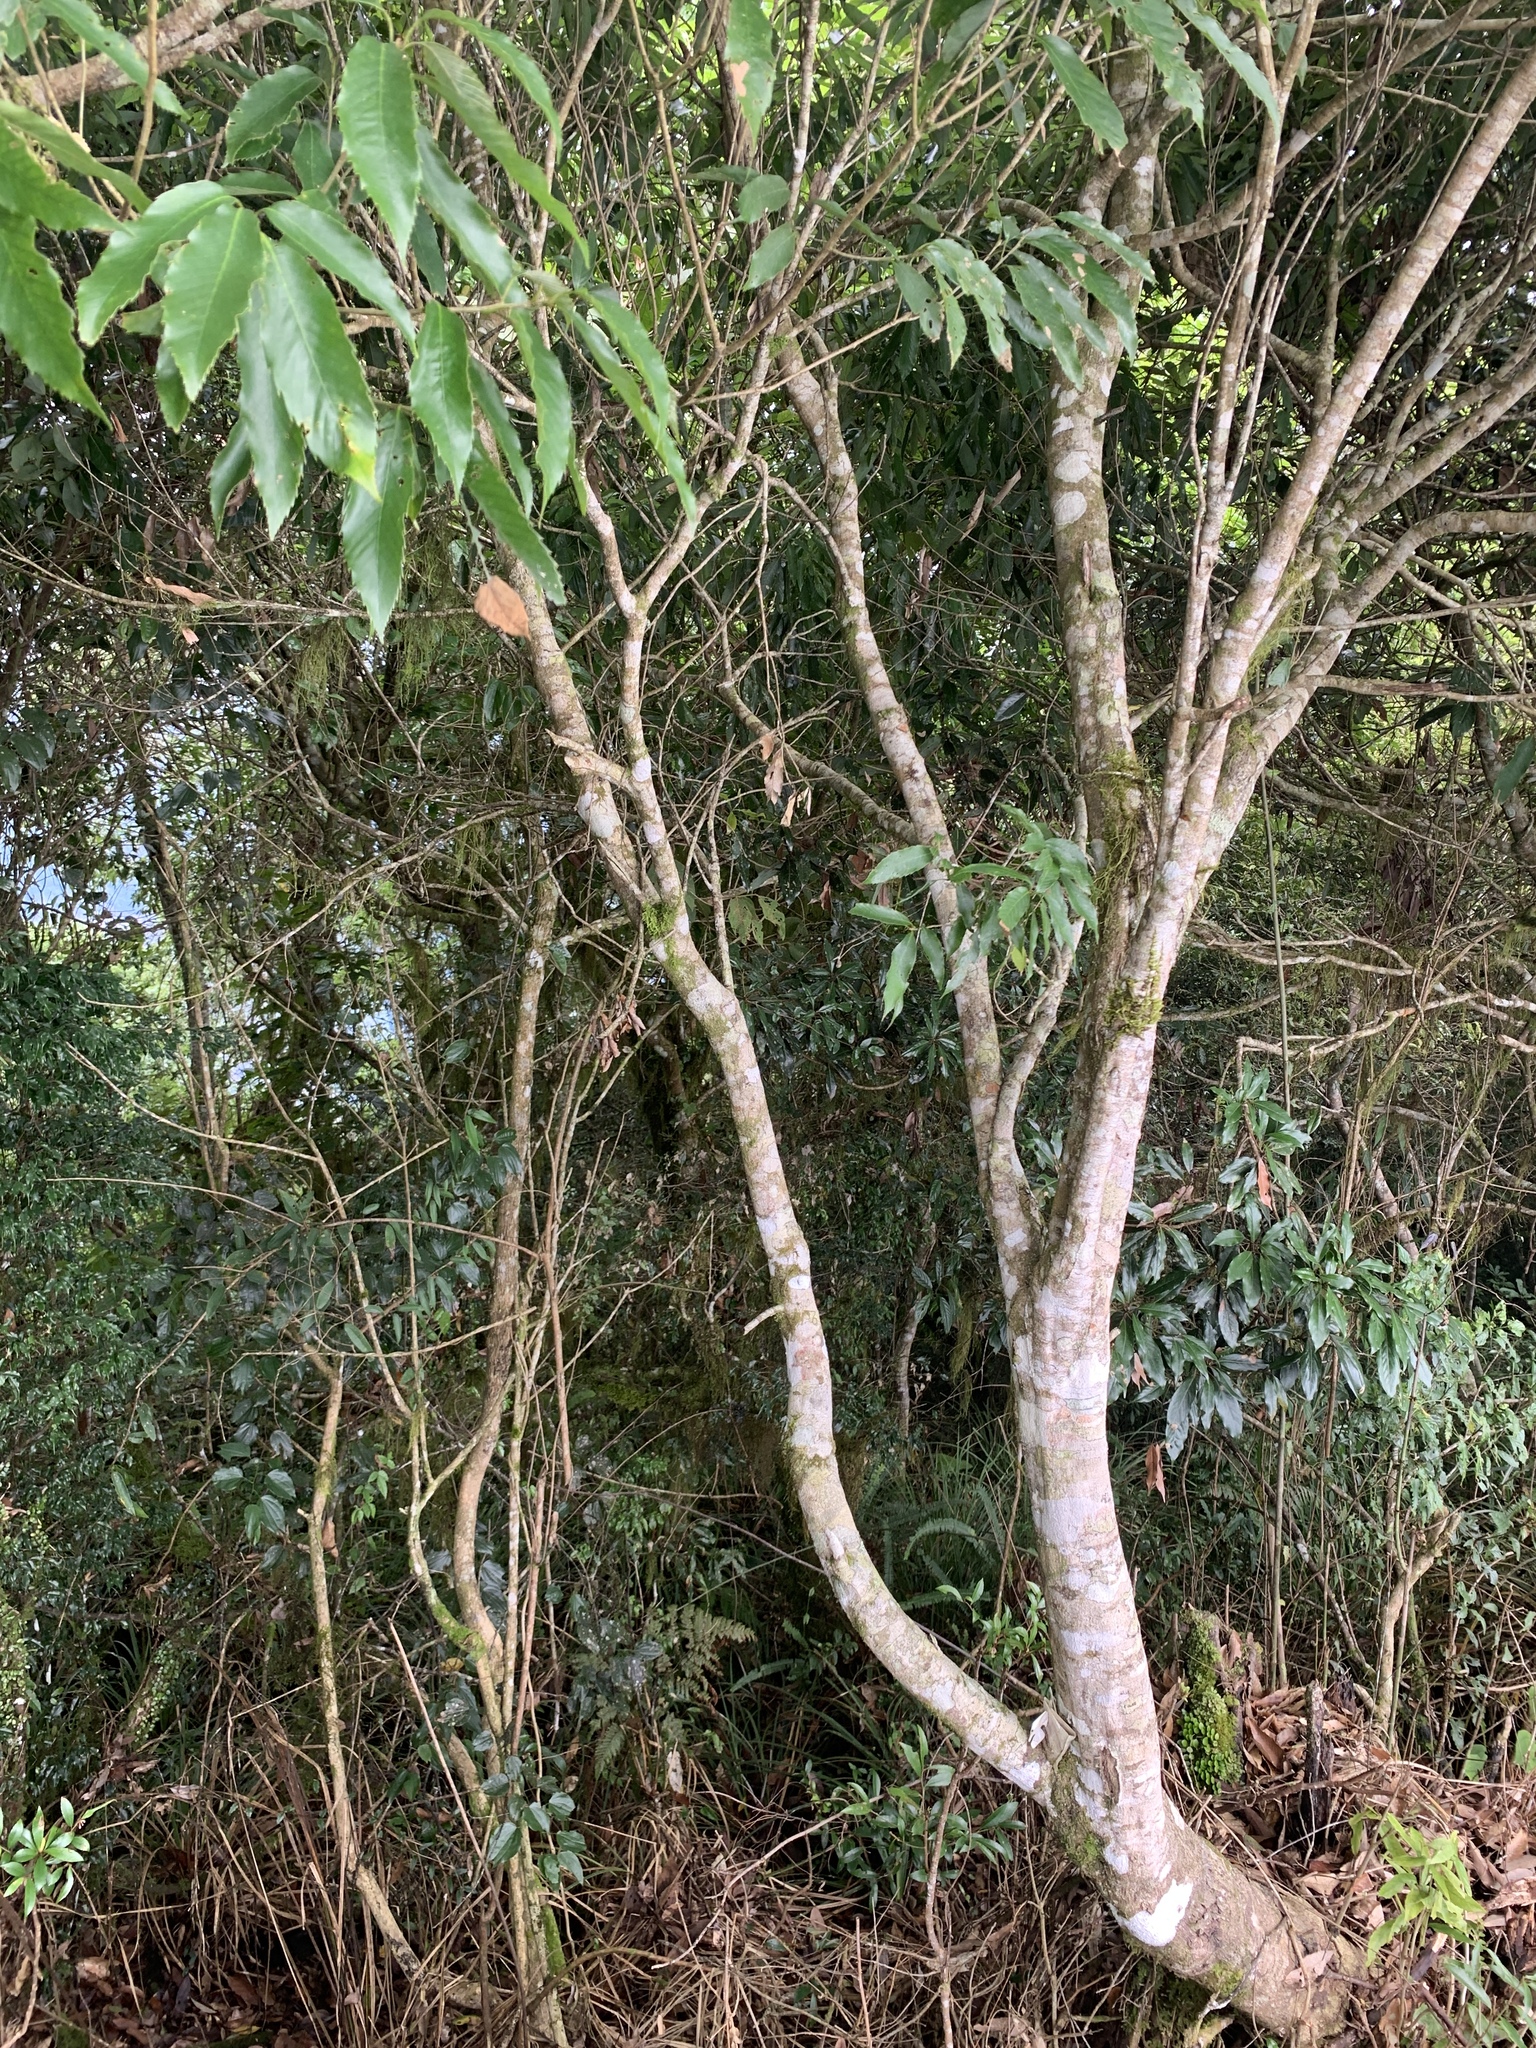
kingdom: Plantae
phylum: Tracheophyta
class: Magnoliopsida
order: Fagales
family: Fagaceae
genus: Quercus
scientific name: Quercus stenophylloides
